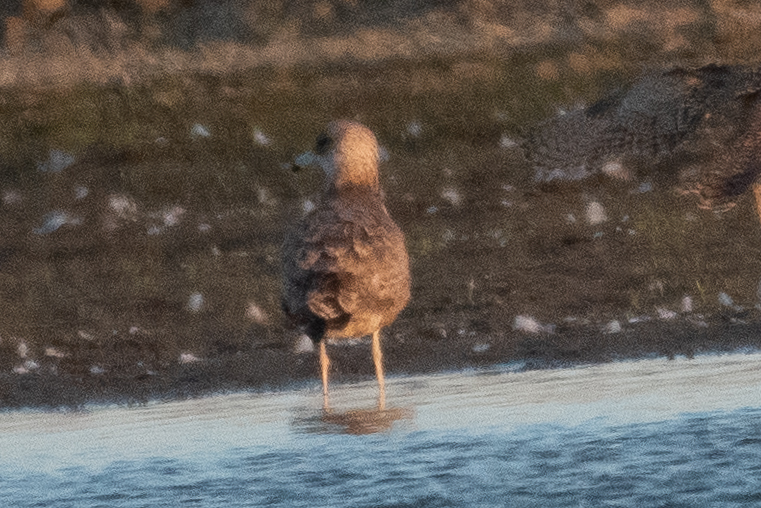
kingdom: Animalia
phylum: Chordata
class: Aves
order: Charadriiformes
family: Laridae
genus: Larus
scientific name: Larus californicus
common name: California gull
